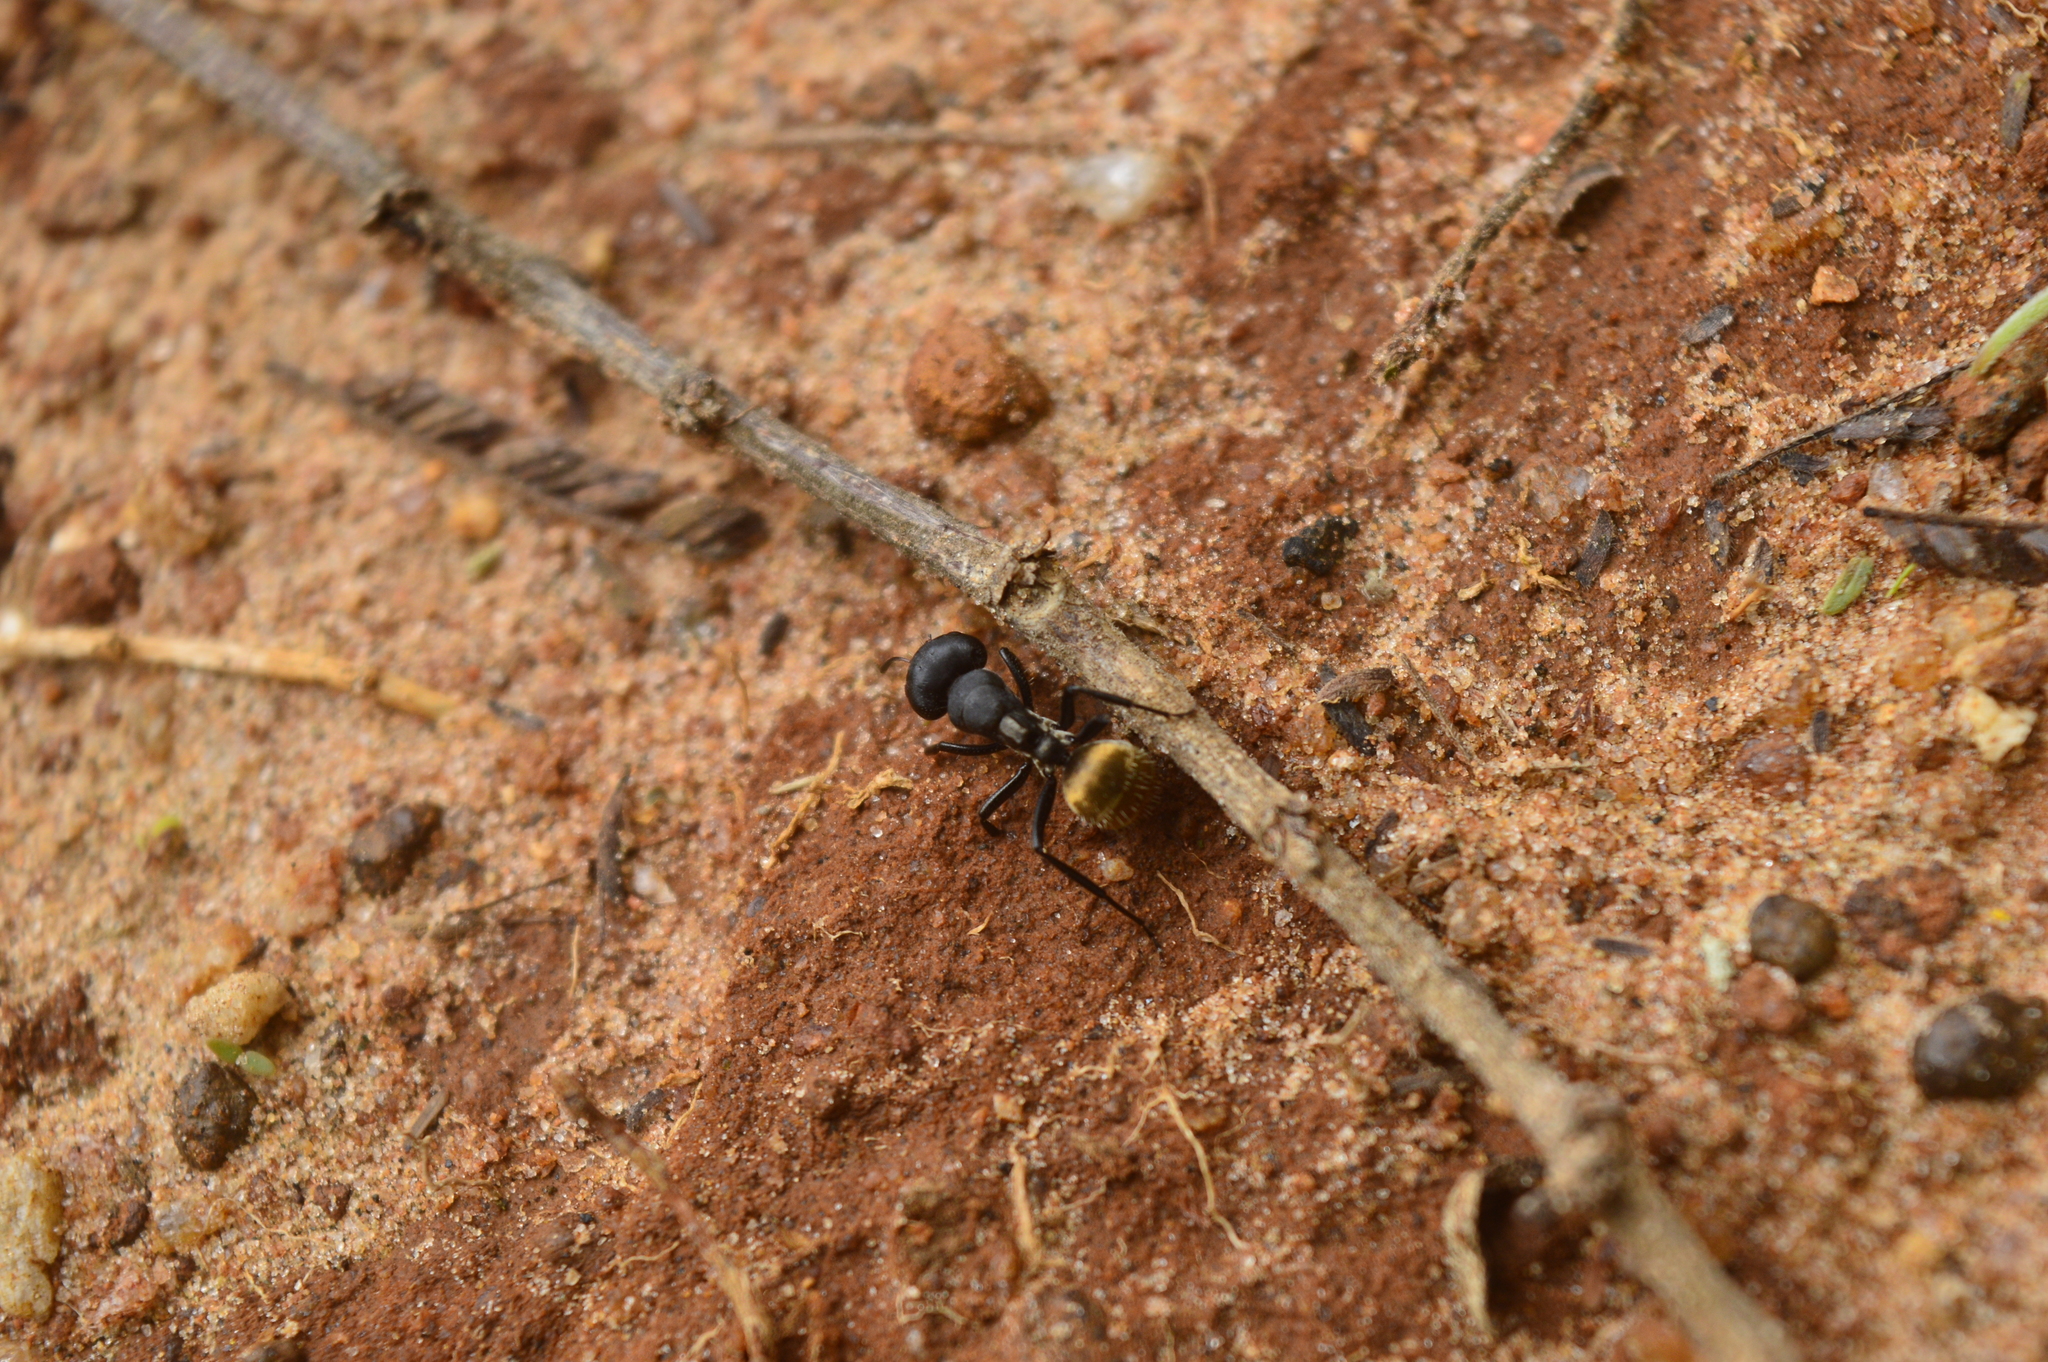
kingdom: Animalia
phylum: Arthropoda
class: Insecta
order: Hymenoptera
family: Formicidae
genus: Camponotus
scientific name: Camponotus sericeus
